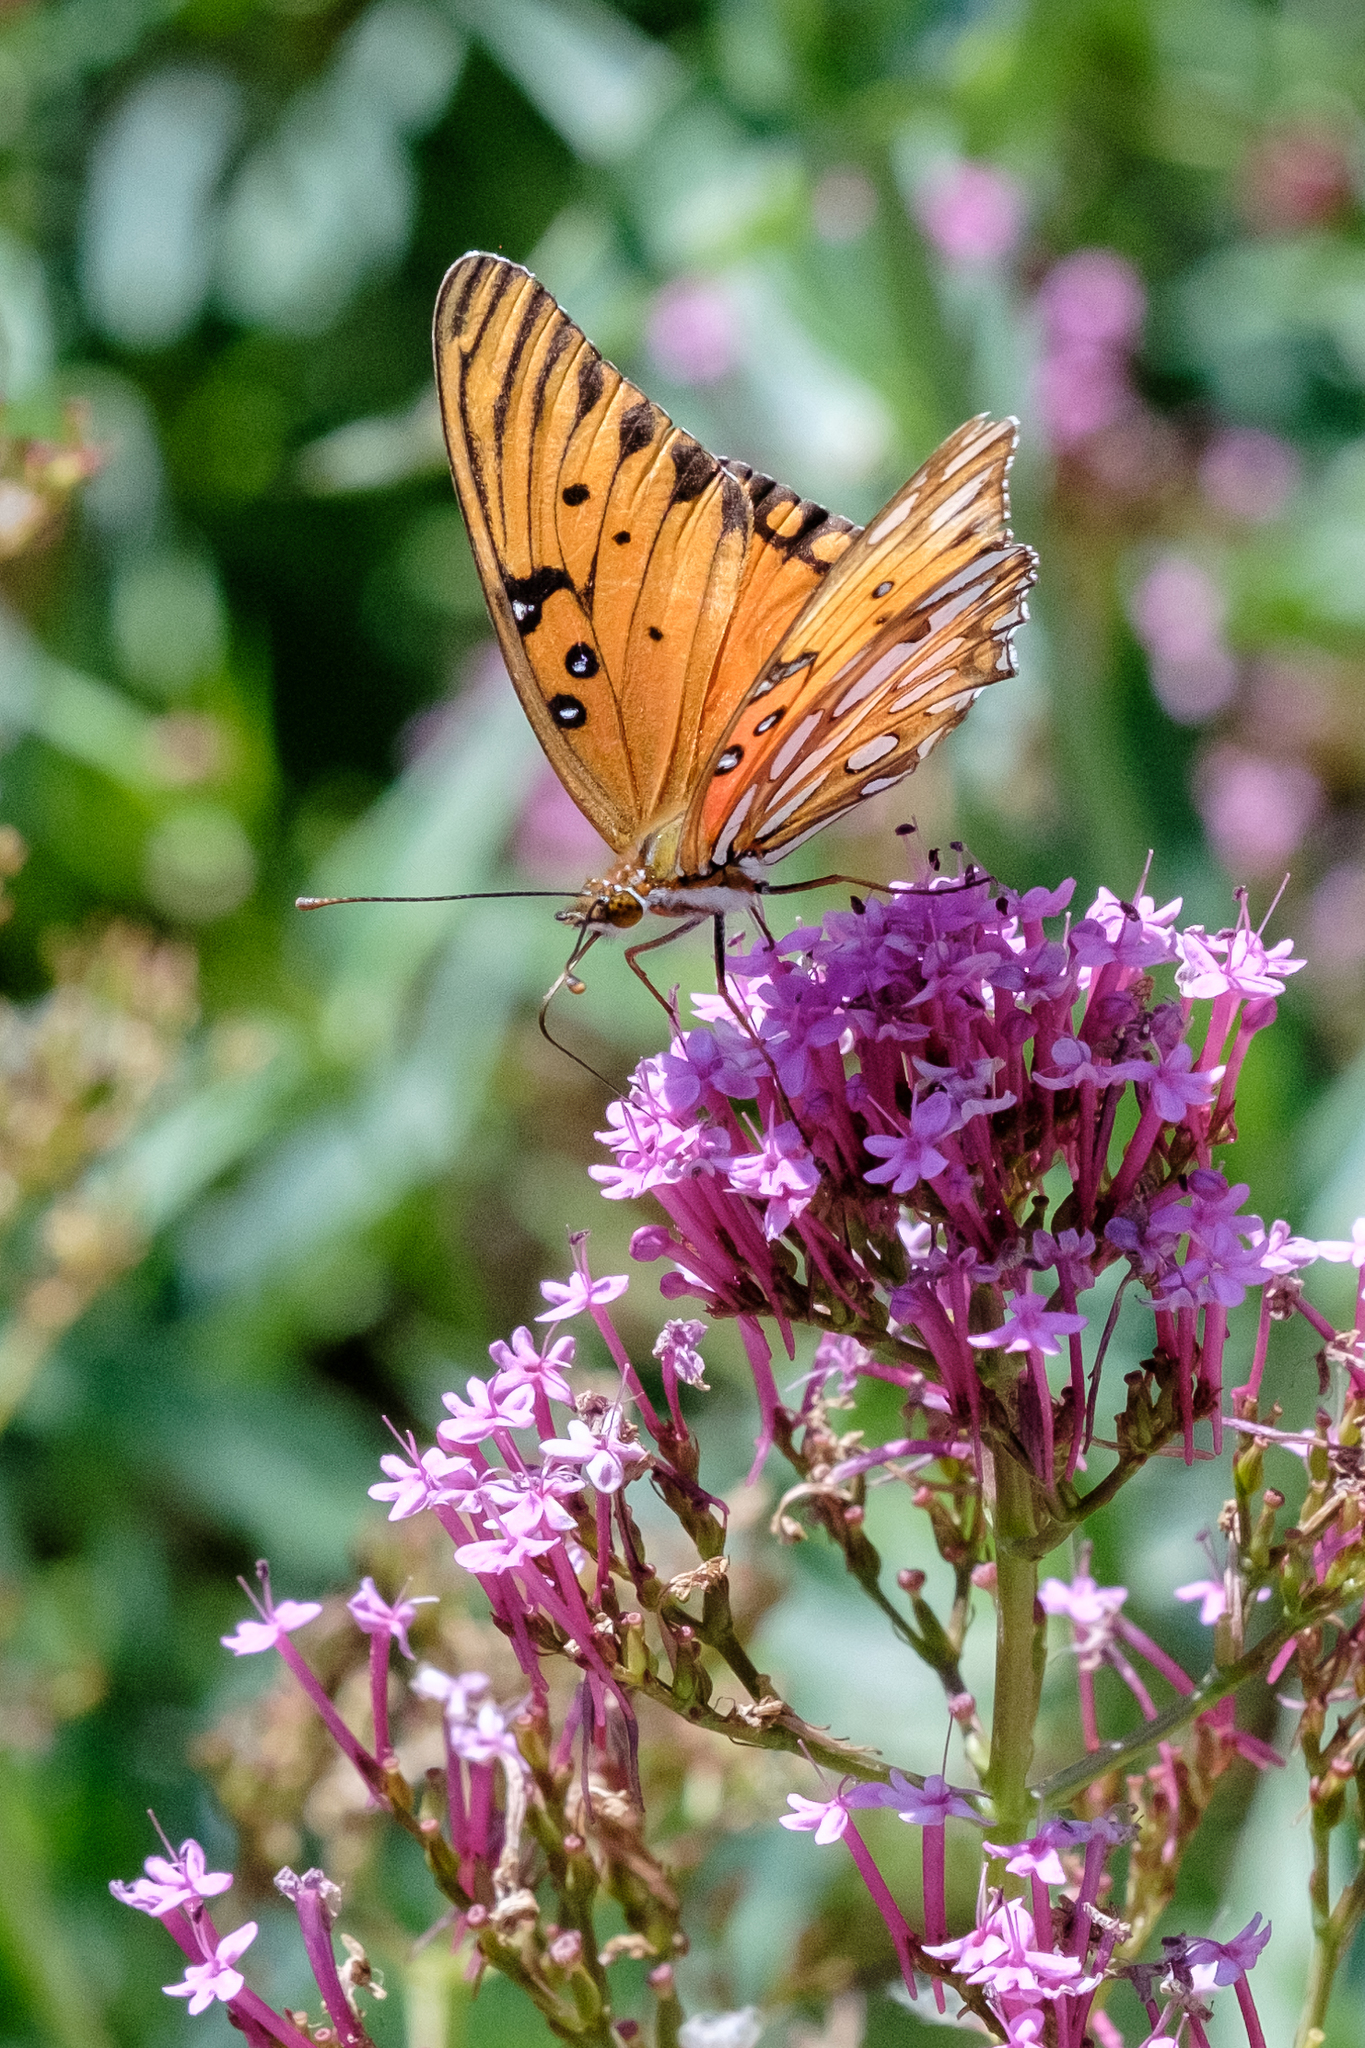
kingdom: Animalia
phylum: Arthropoda
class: Insecta
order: Lepidoptera
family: Nymphalidae
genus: Dione
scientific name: Dione vanillae
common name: Gulf fritillary
